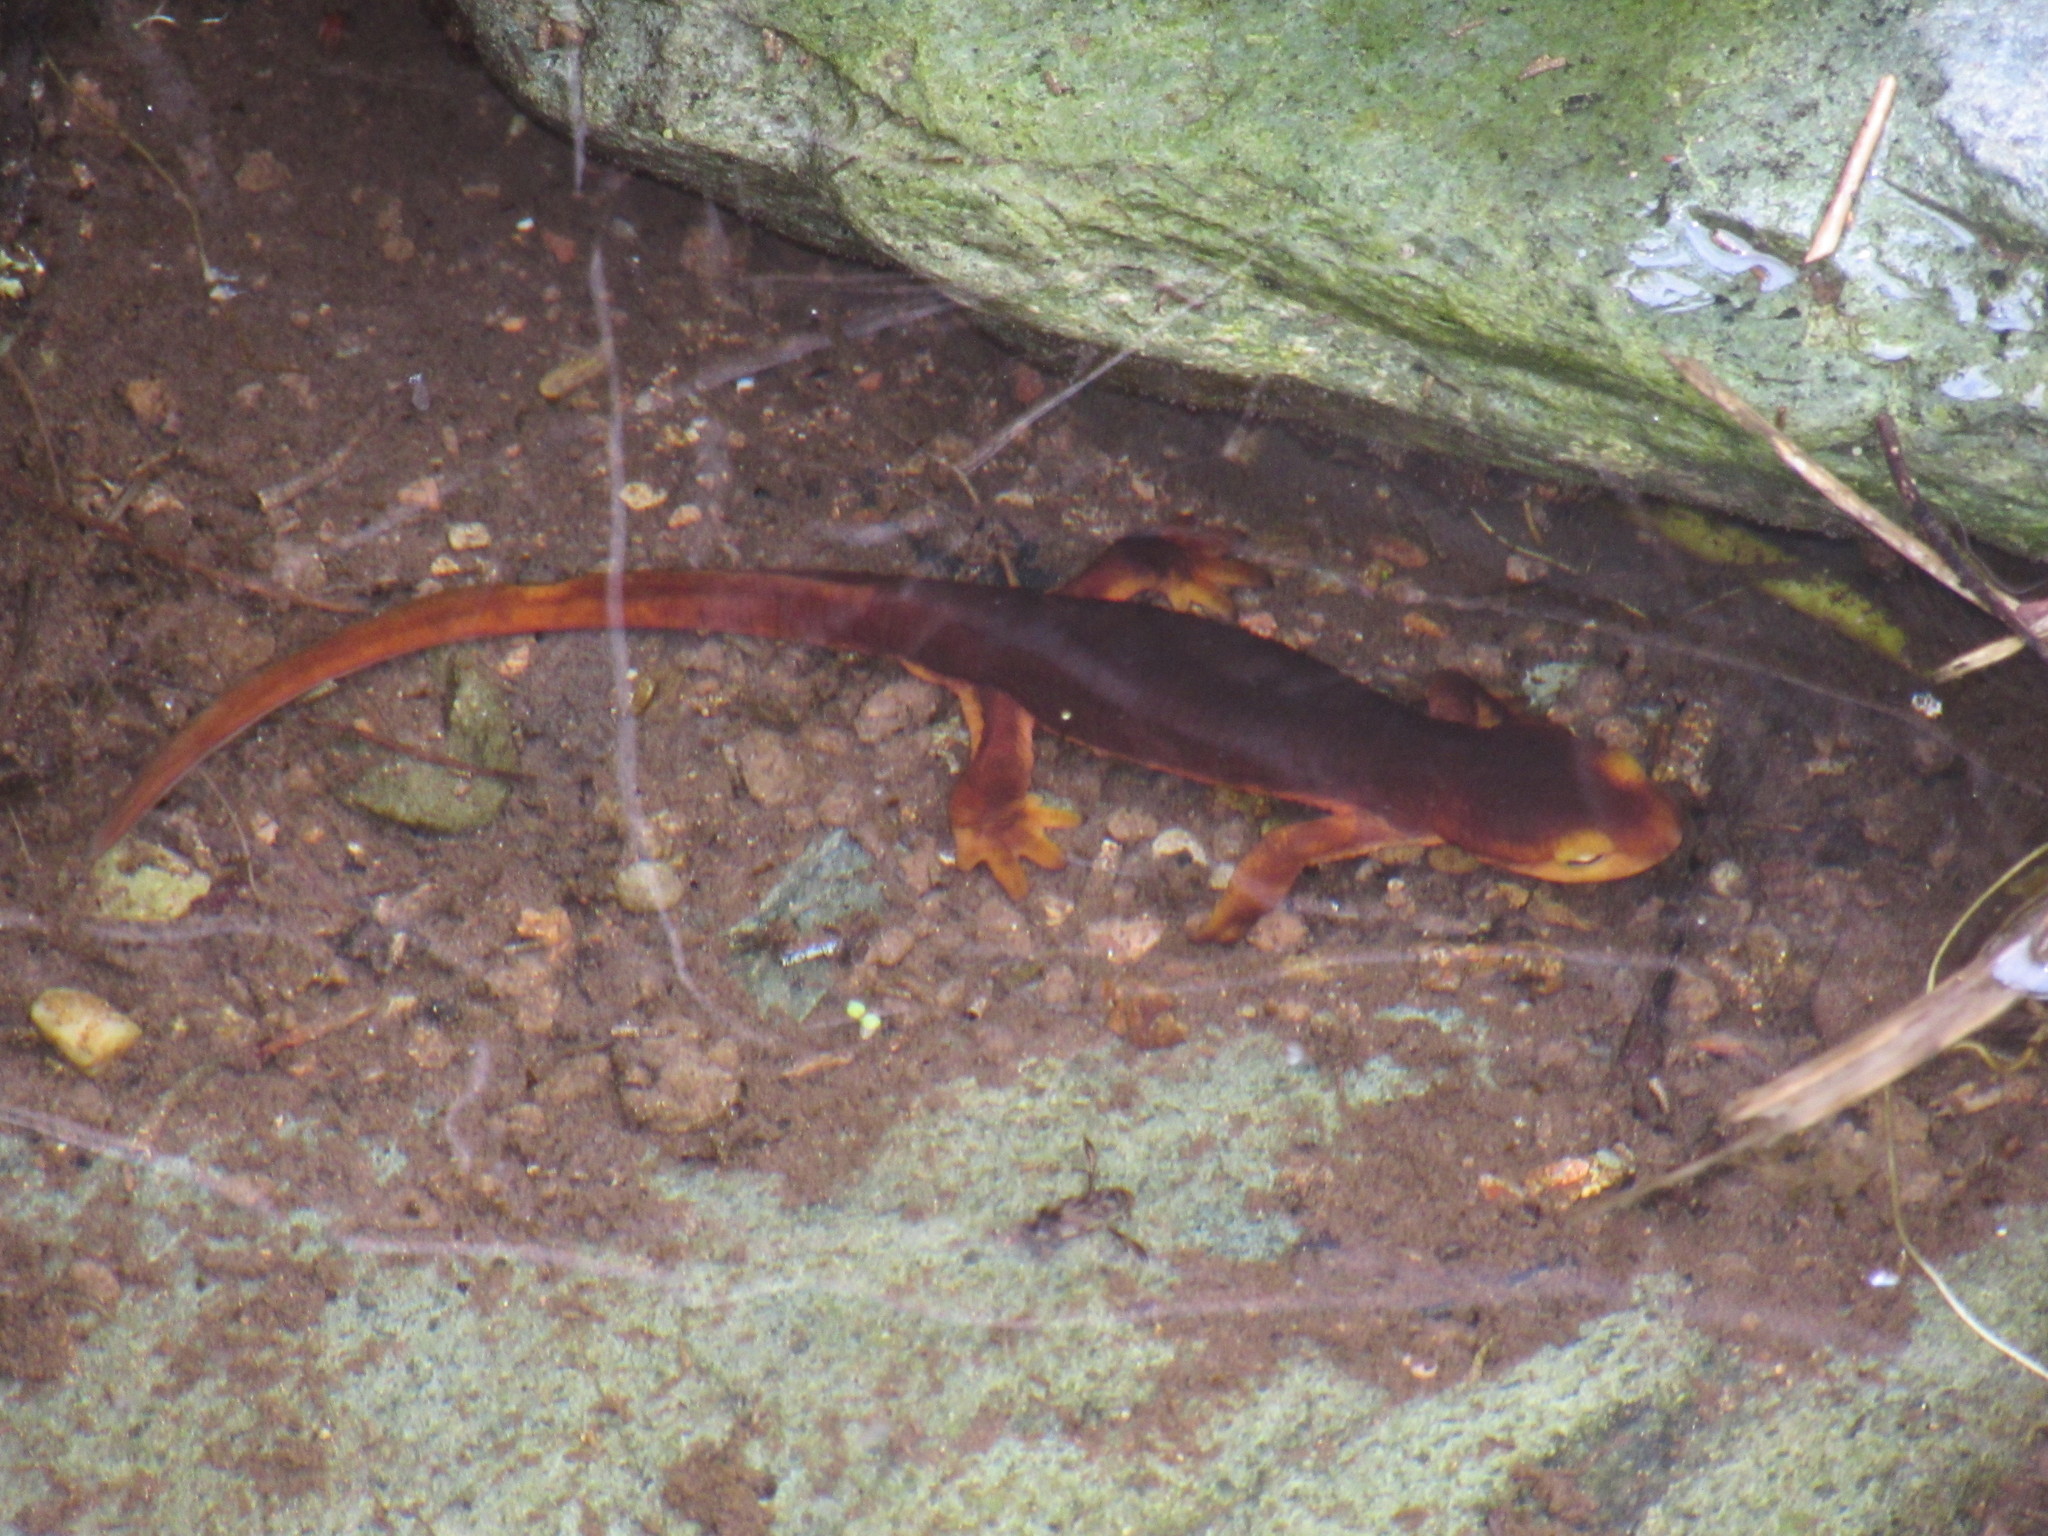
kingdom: Animalia
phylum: Chordata
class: Amphibia
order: Caudata
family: Salamandridae
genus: Taricha
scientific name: Taricha sierrae
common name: Sierra newt
